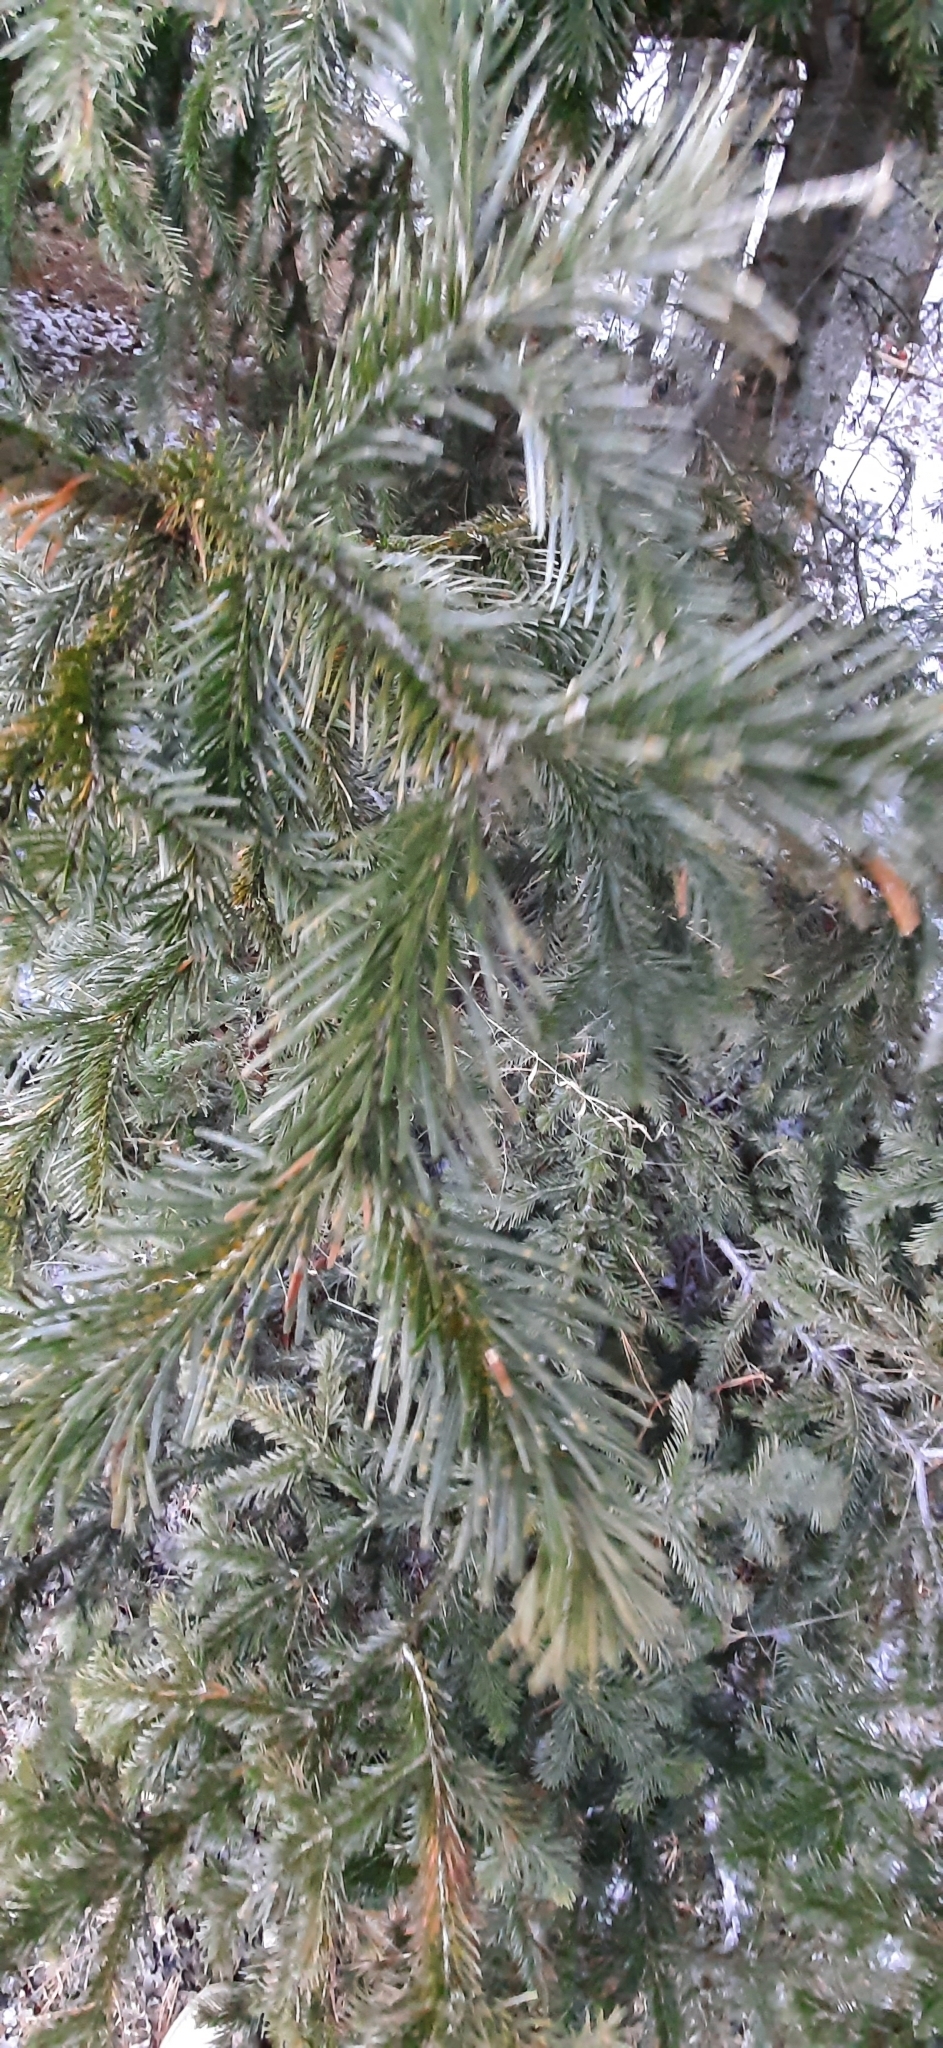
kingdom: Plantae
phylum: Tracheophyta
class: Pinopsida
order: Pinales
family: Pinaceae
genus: Abies
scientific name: Abies sibirica
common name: Siberian fir
